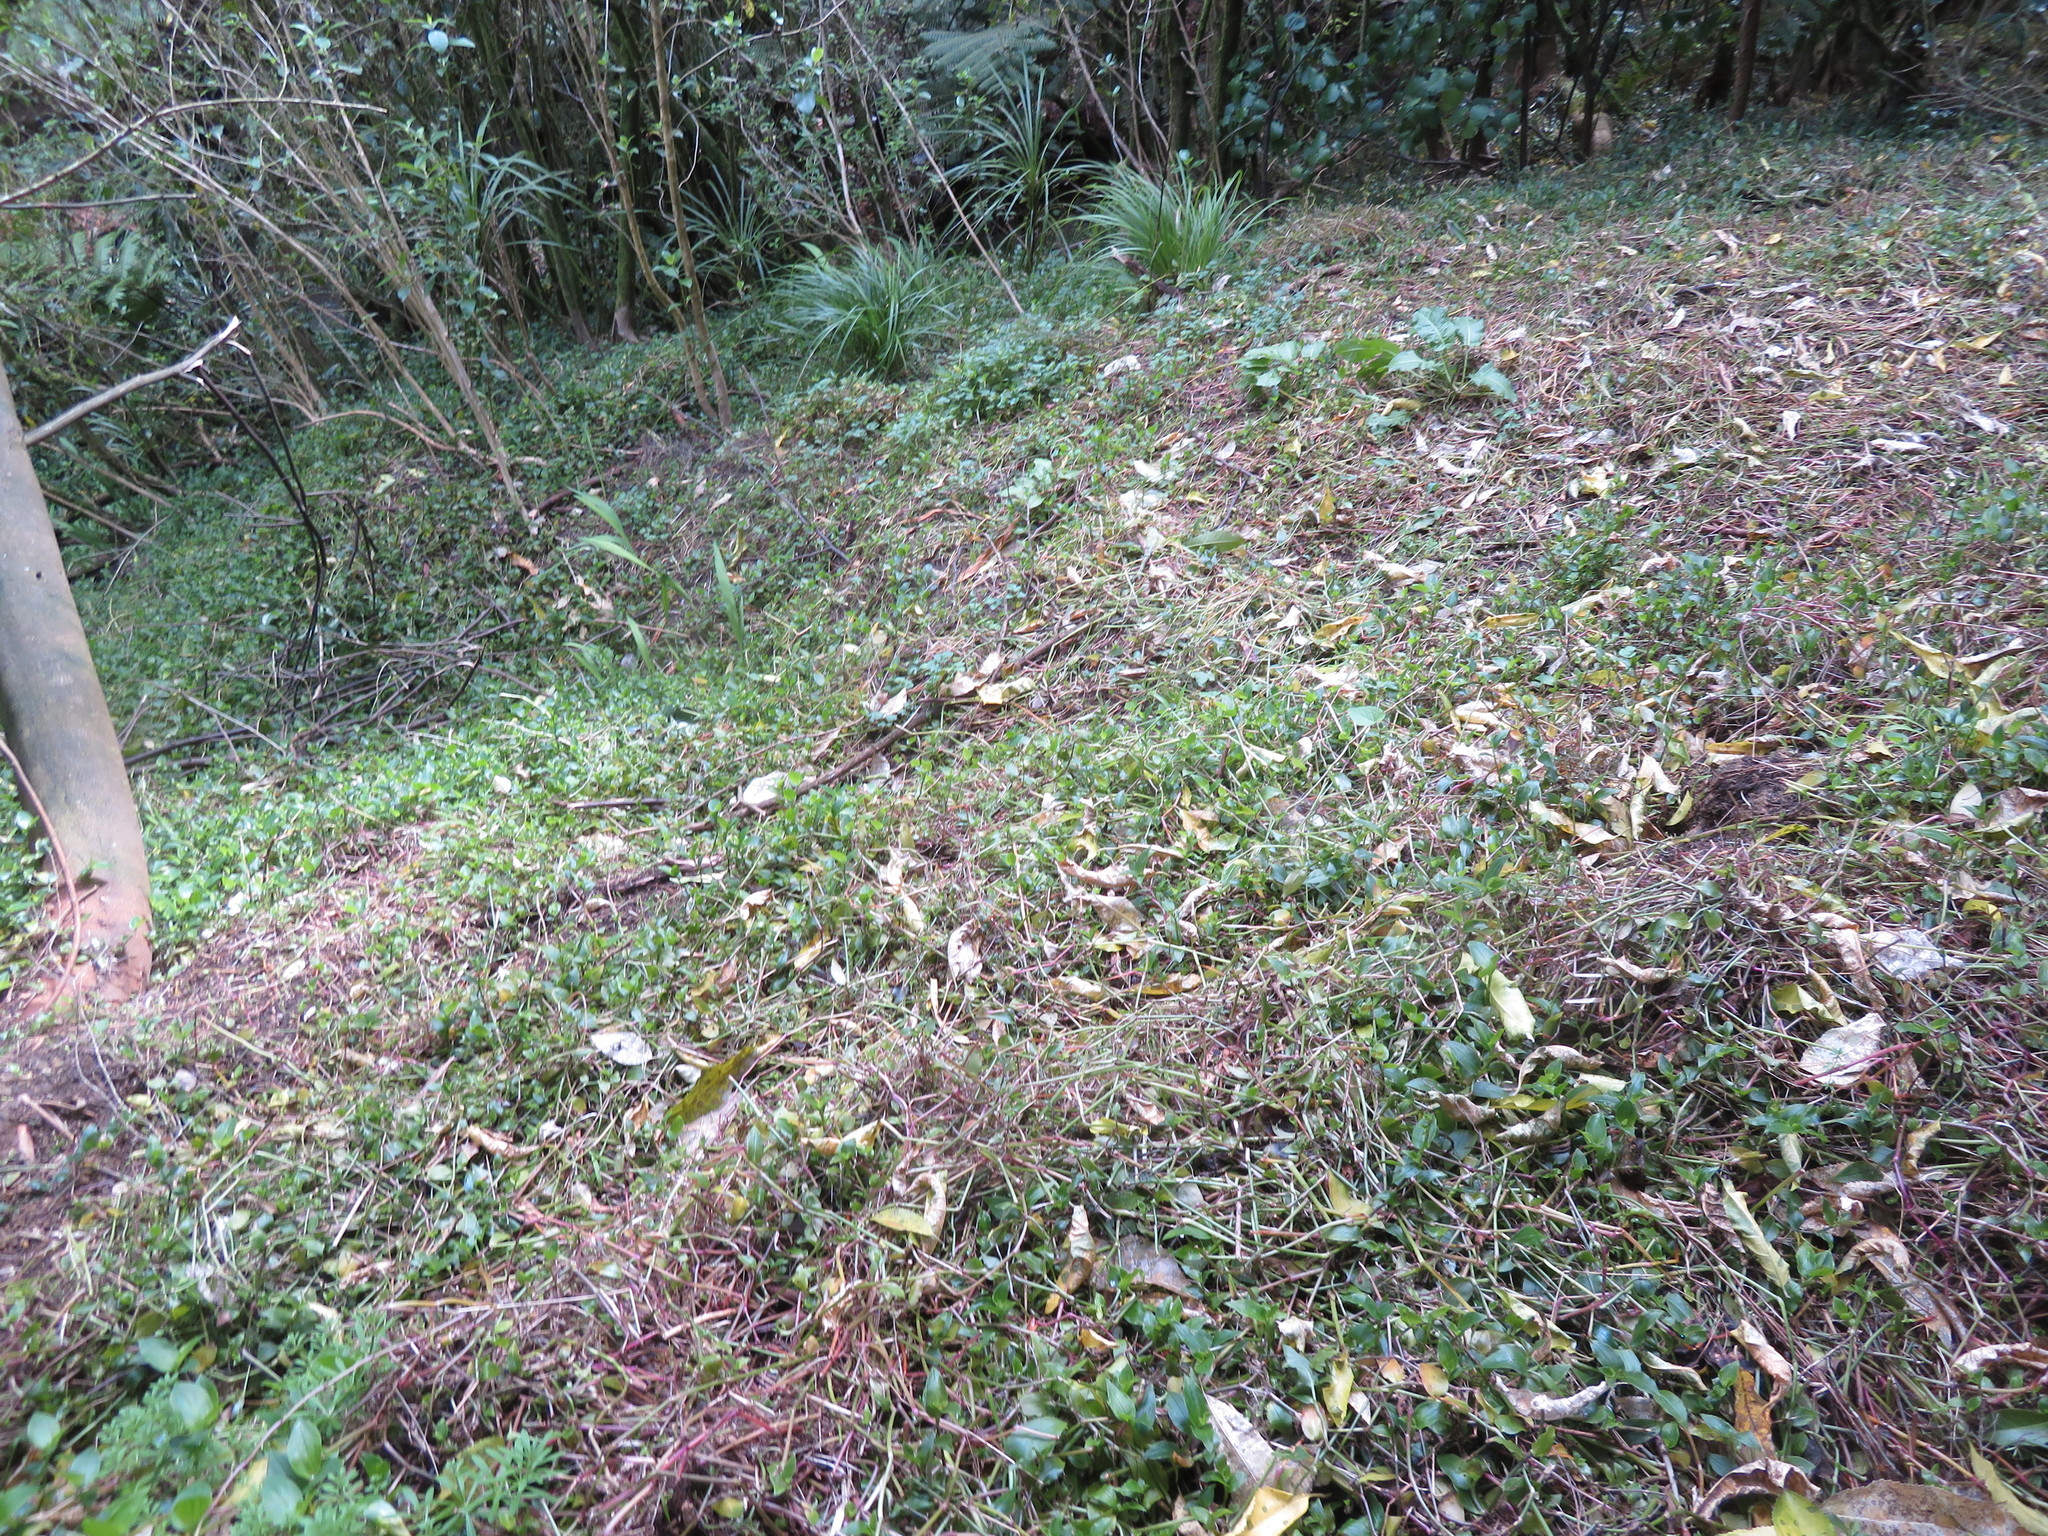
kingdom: Plantae
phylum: Tracheophyta
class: Liliopsida
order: Commelinales
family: Commelinaceae
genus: Tradescantia
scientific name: Tradescantia fluminensis
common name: Wandering-jew
